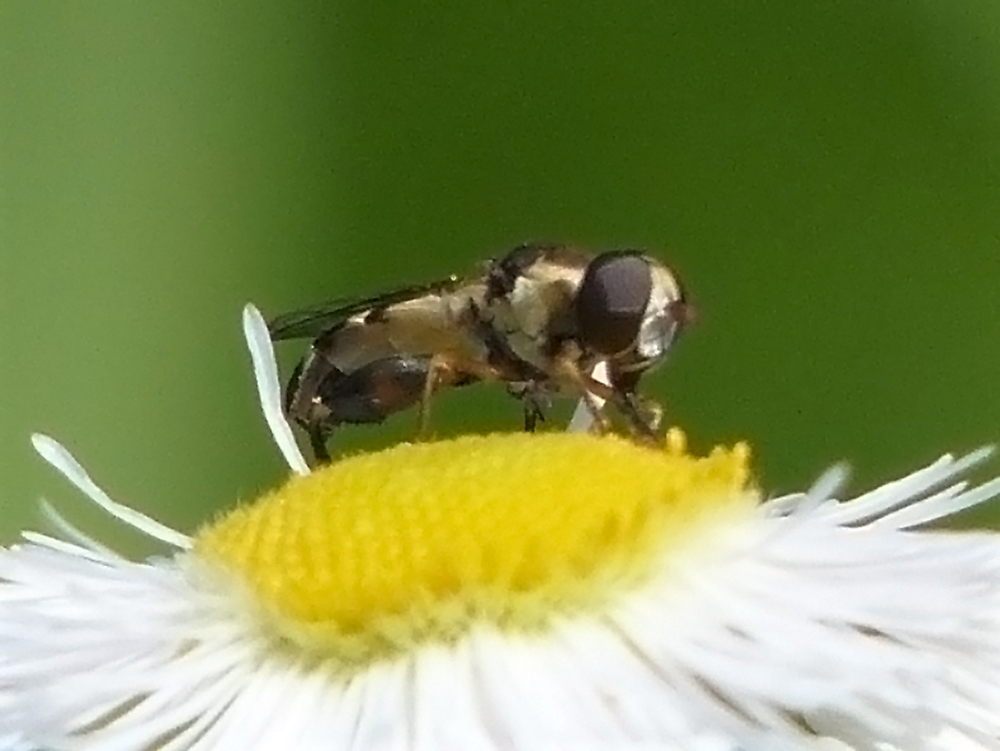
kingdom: Animalia
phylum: Arthropoda
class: Insecta
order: Diptera
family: Syrphidae
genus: Syritta
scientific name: Syritta pipiens
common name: Hover fly
